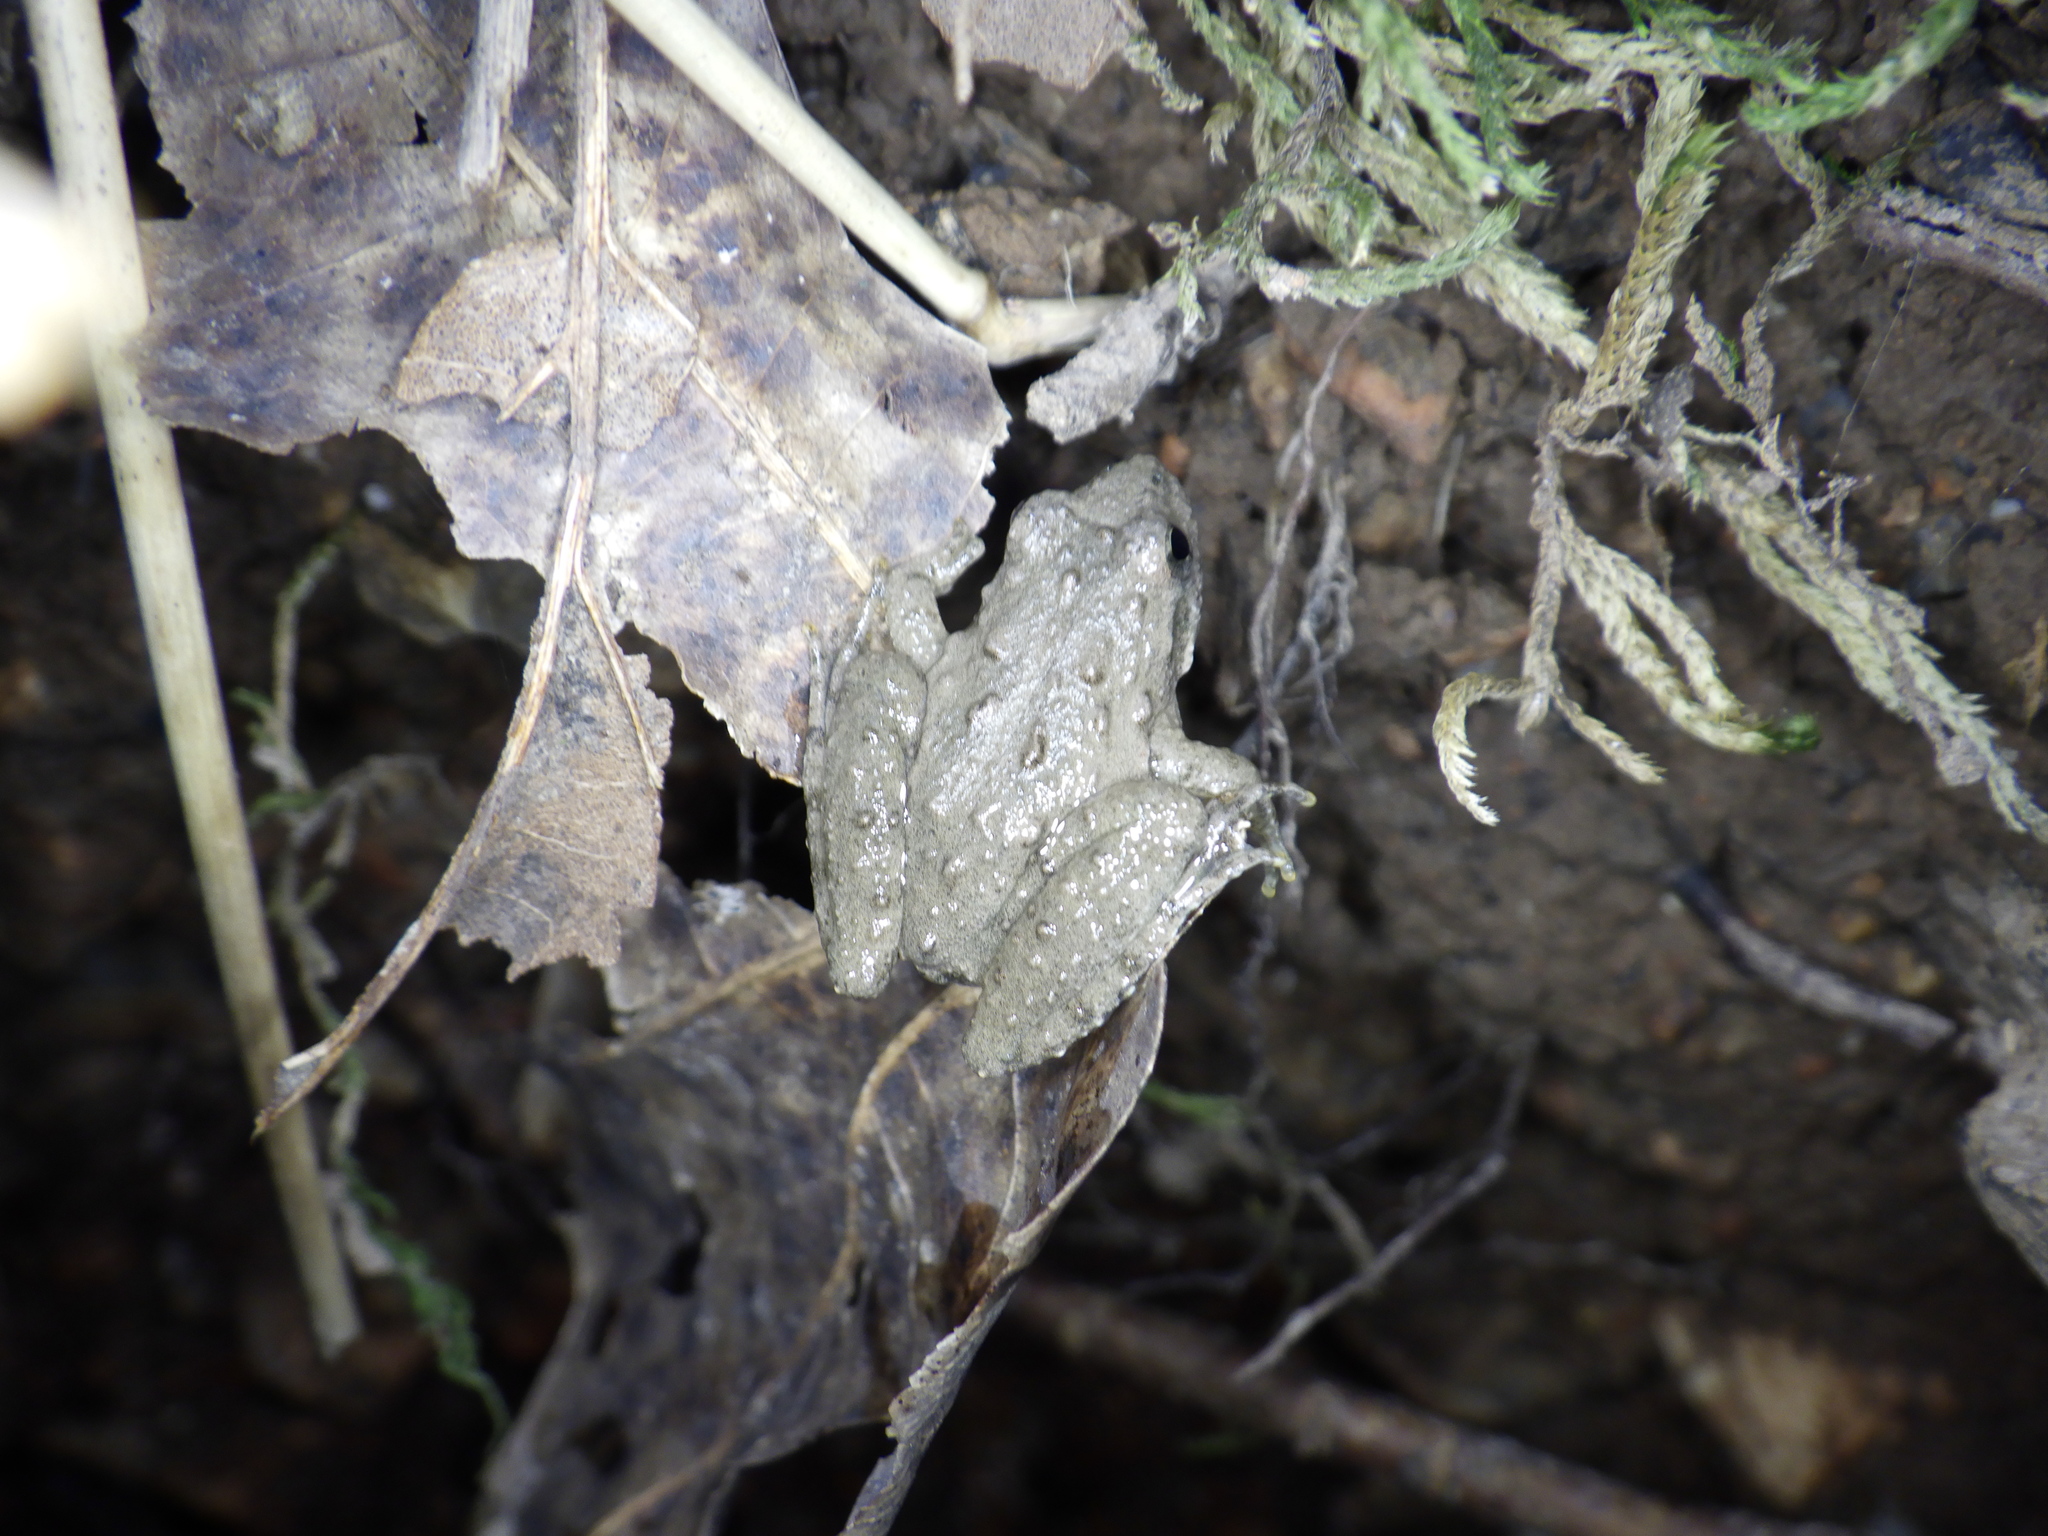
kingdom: Animalia
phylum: Chordata
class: Amphibia
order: Anura
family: Hylidae
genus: Acris
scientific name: Acris blanchardi
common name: Blanchard's cricket frog
